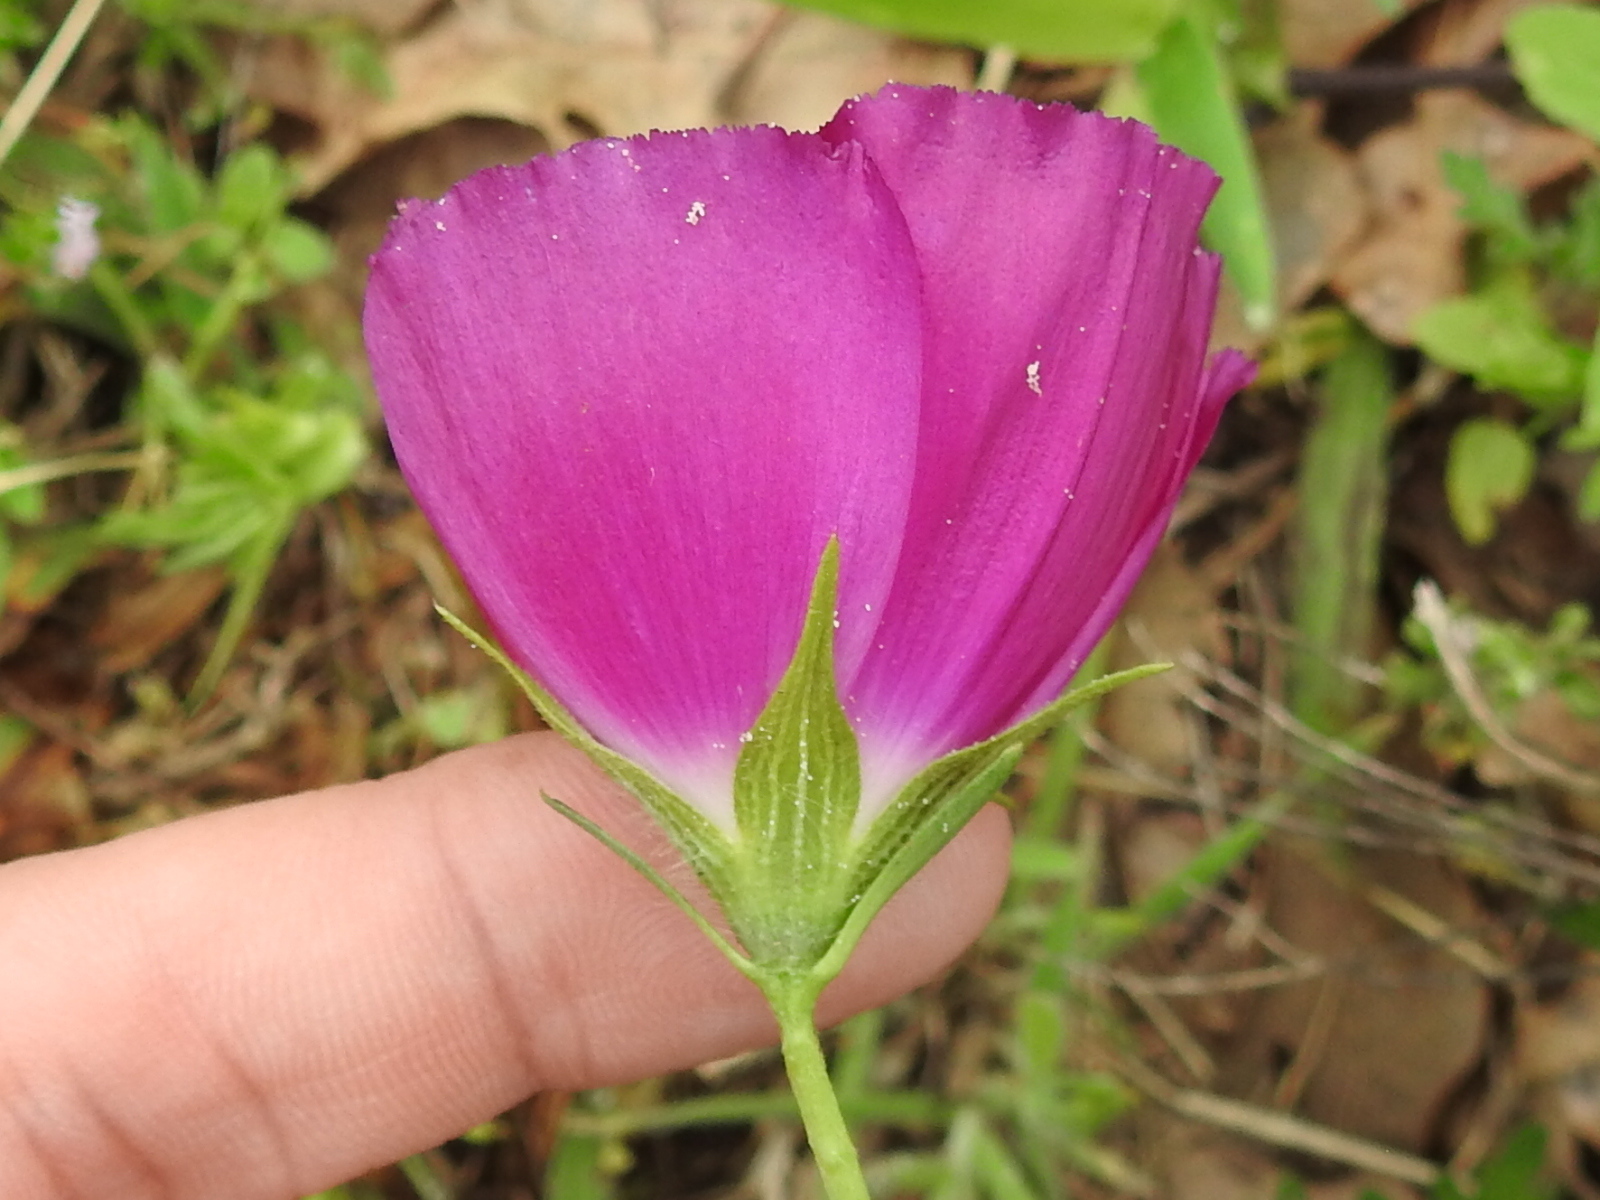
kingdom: Plantae
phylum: Tracheophyta
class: Magnoliopsida
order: Malvales
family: Malvaceae
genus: Callirhoe
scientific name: Callirhoe involucrata
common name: Purple poppy-mallow
